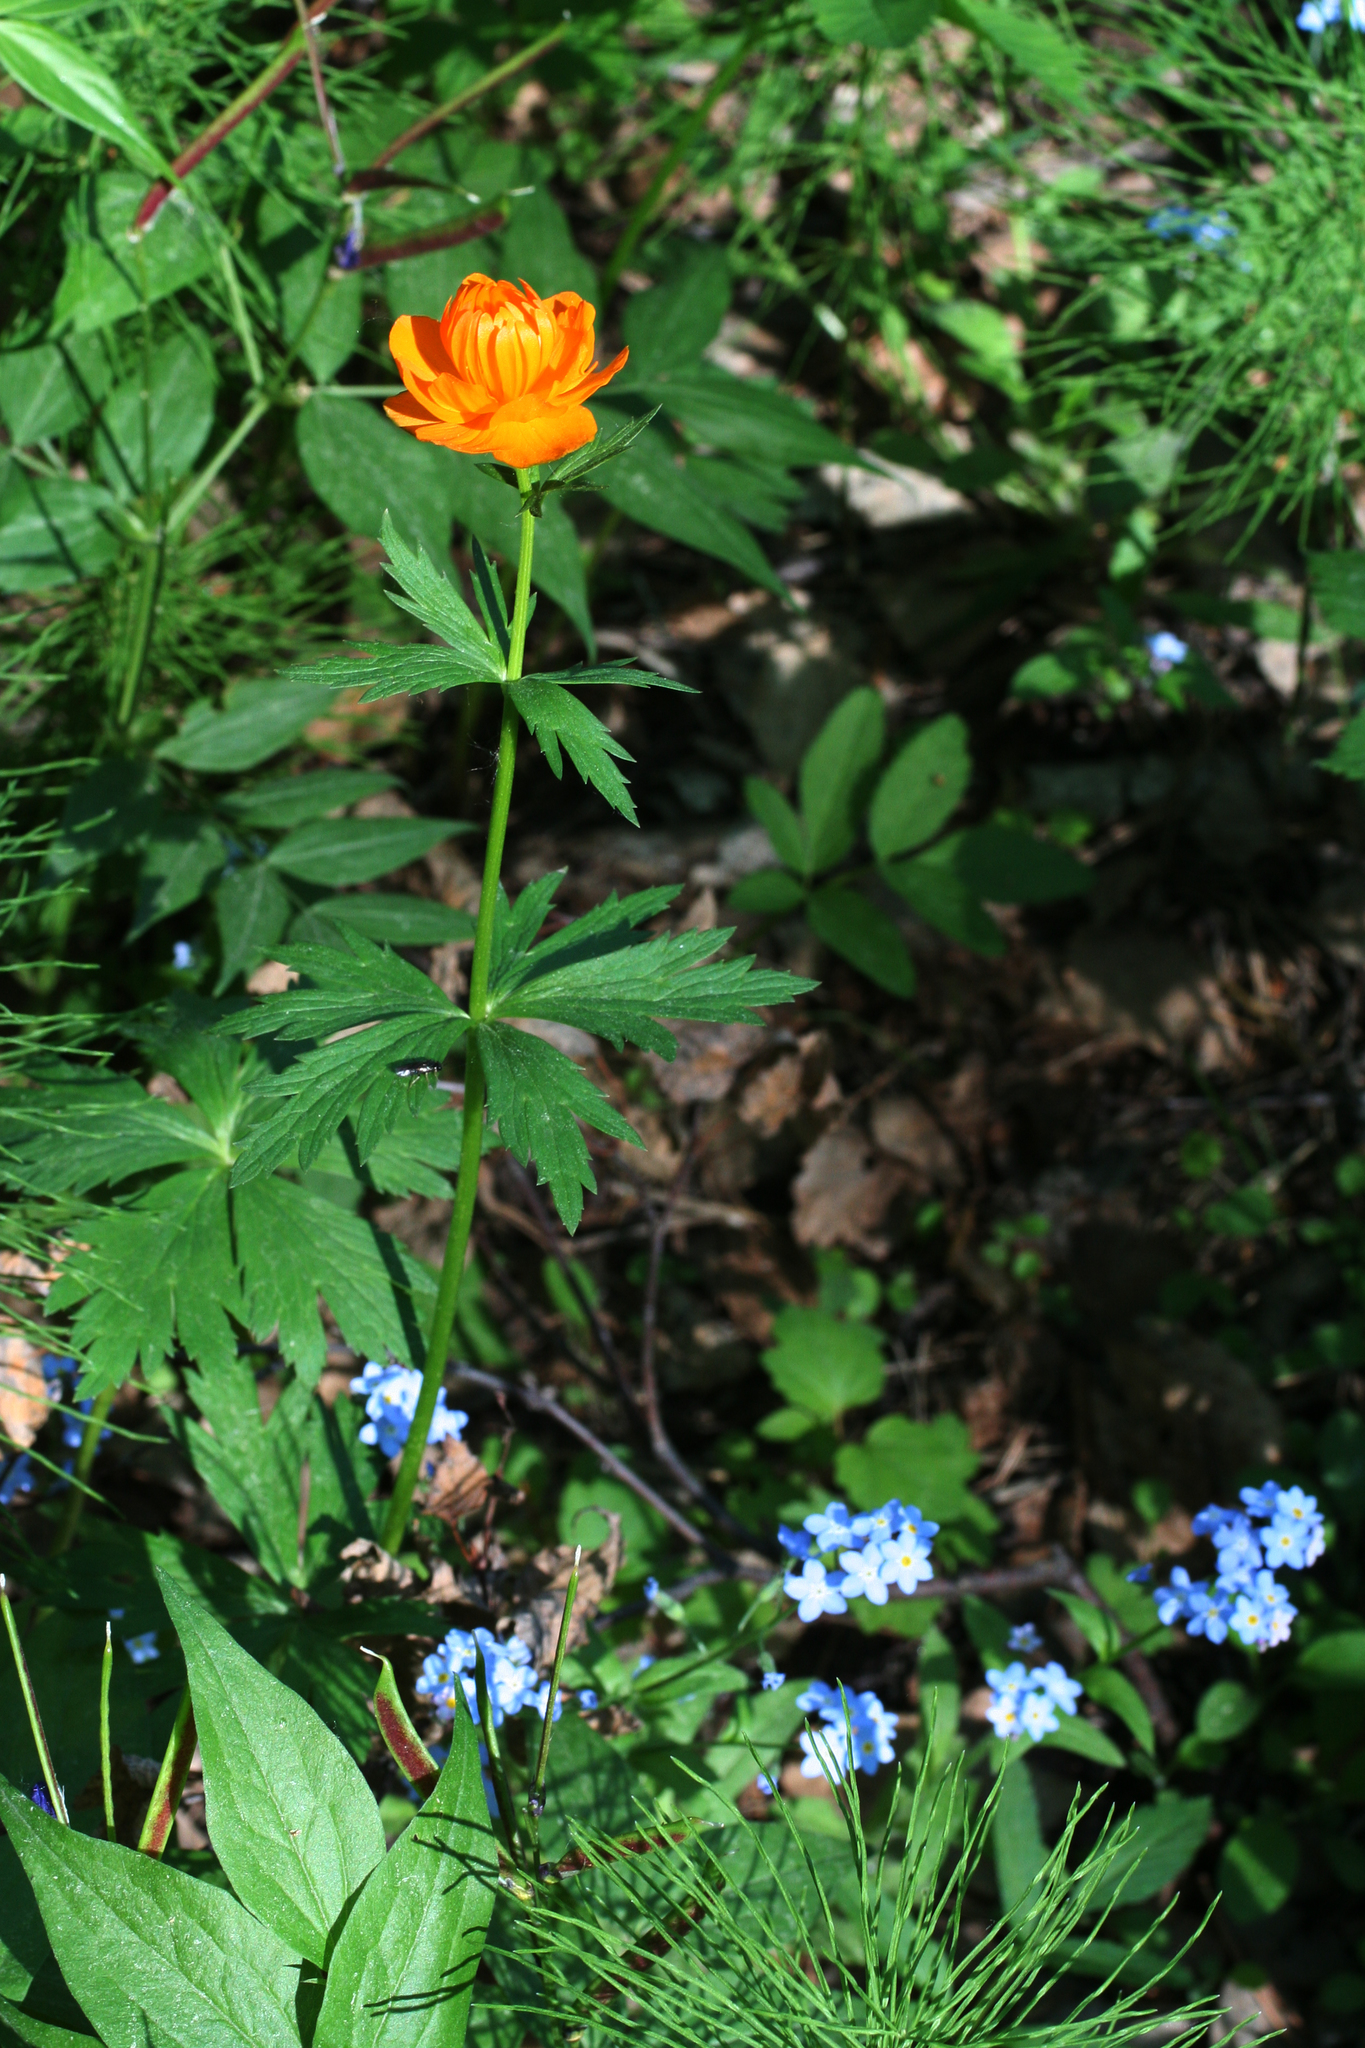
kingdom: Plantae
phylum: Tracheophyta
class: Magnoliopsida
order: Ranunculales
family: Ranunculaceae
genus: Trollius
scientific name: Trollius asiaticus
